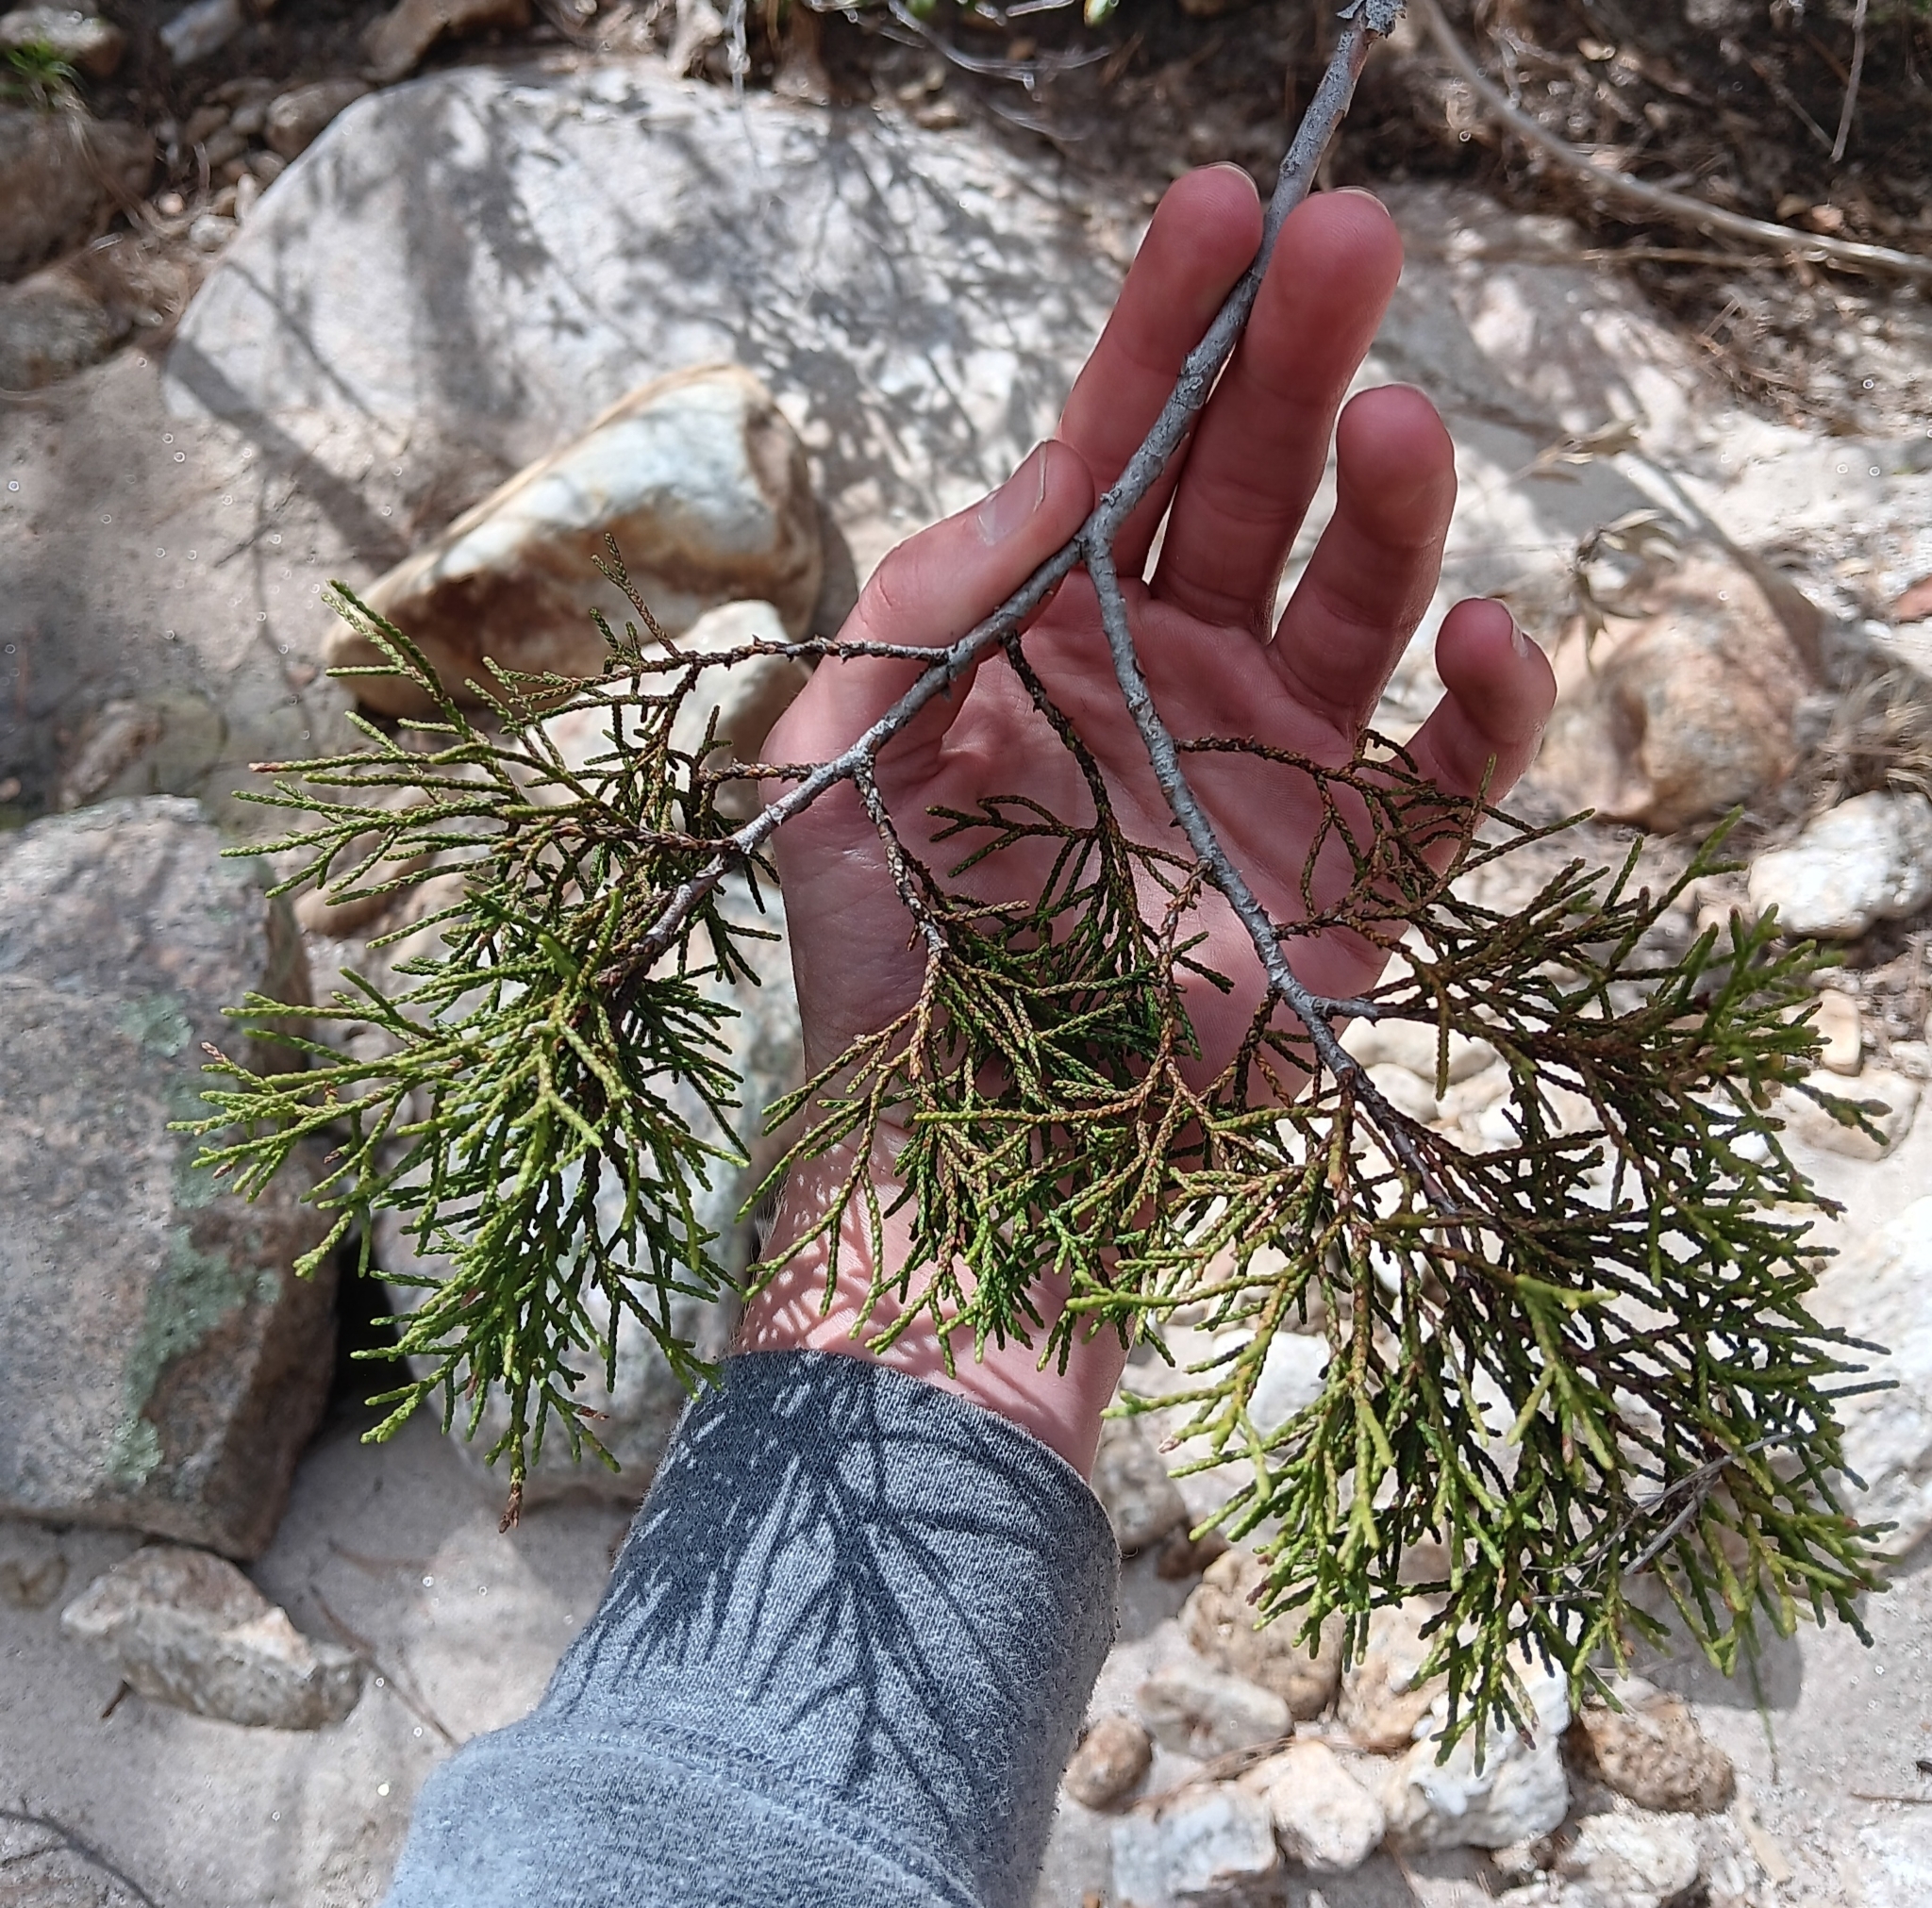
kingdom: Plantae
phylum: Tracheophyta
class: Pinopsida
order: Pinales
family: Cupressaceae
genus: Juniperus
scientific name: Juniperus deppeana
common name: Alligator juniper
